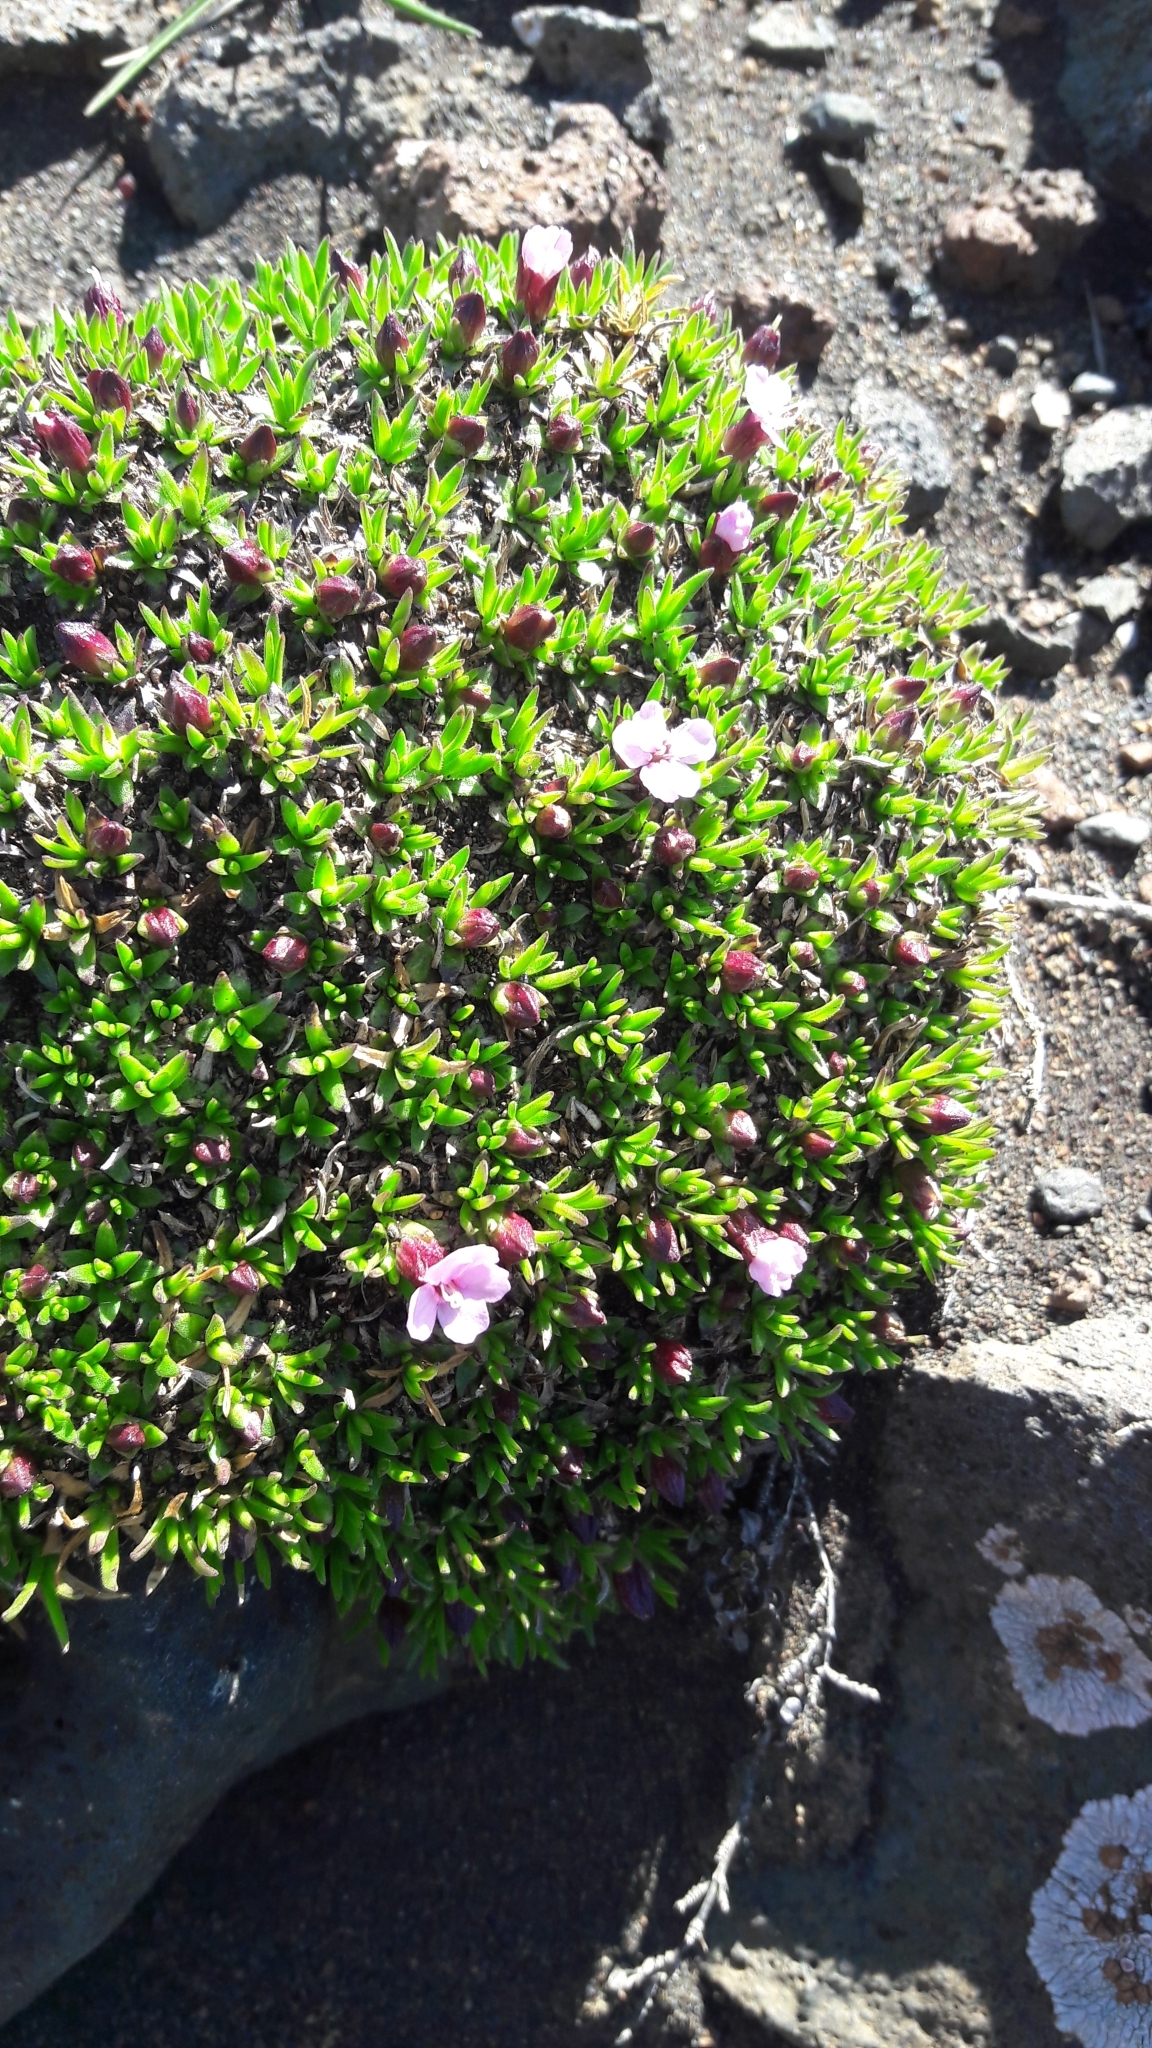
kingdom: Plantae
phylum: Tracheophyta
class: Magnoliopsida
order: Caryophyllales
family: Caryophyllaceae
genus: Silene
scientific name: Silene acaulis
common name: Moss campion
